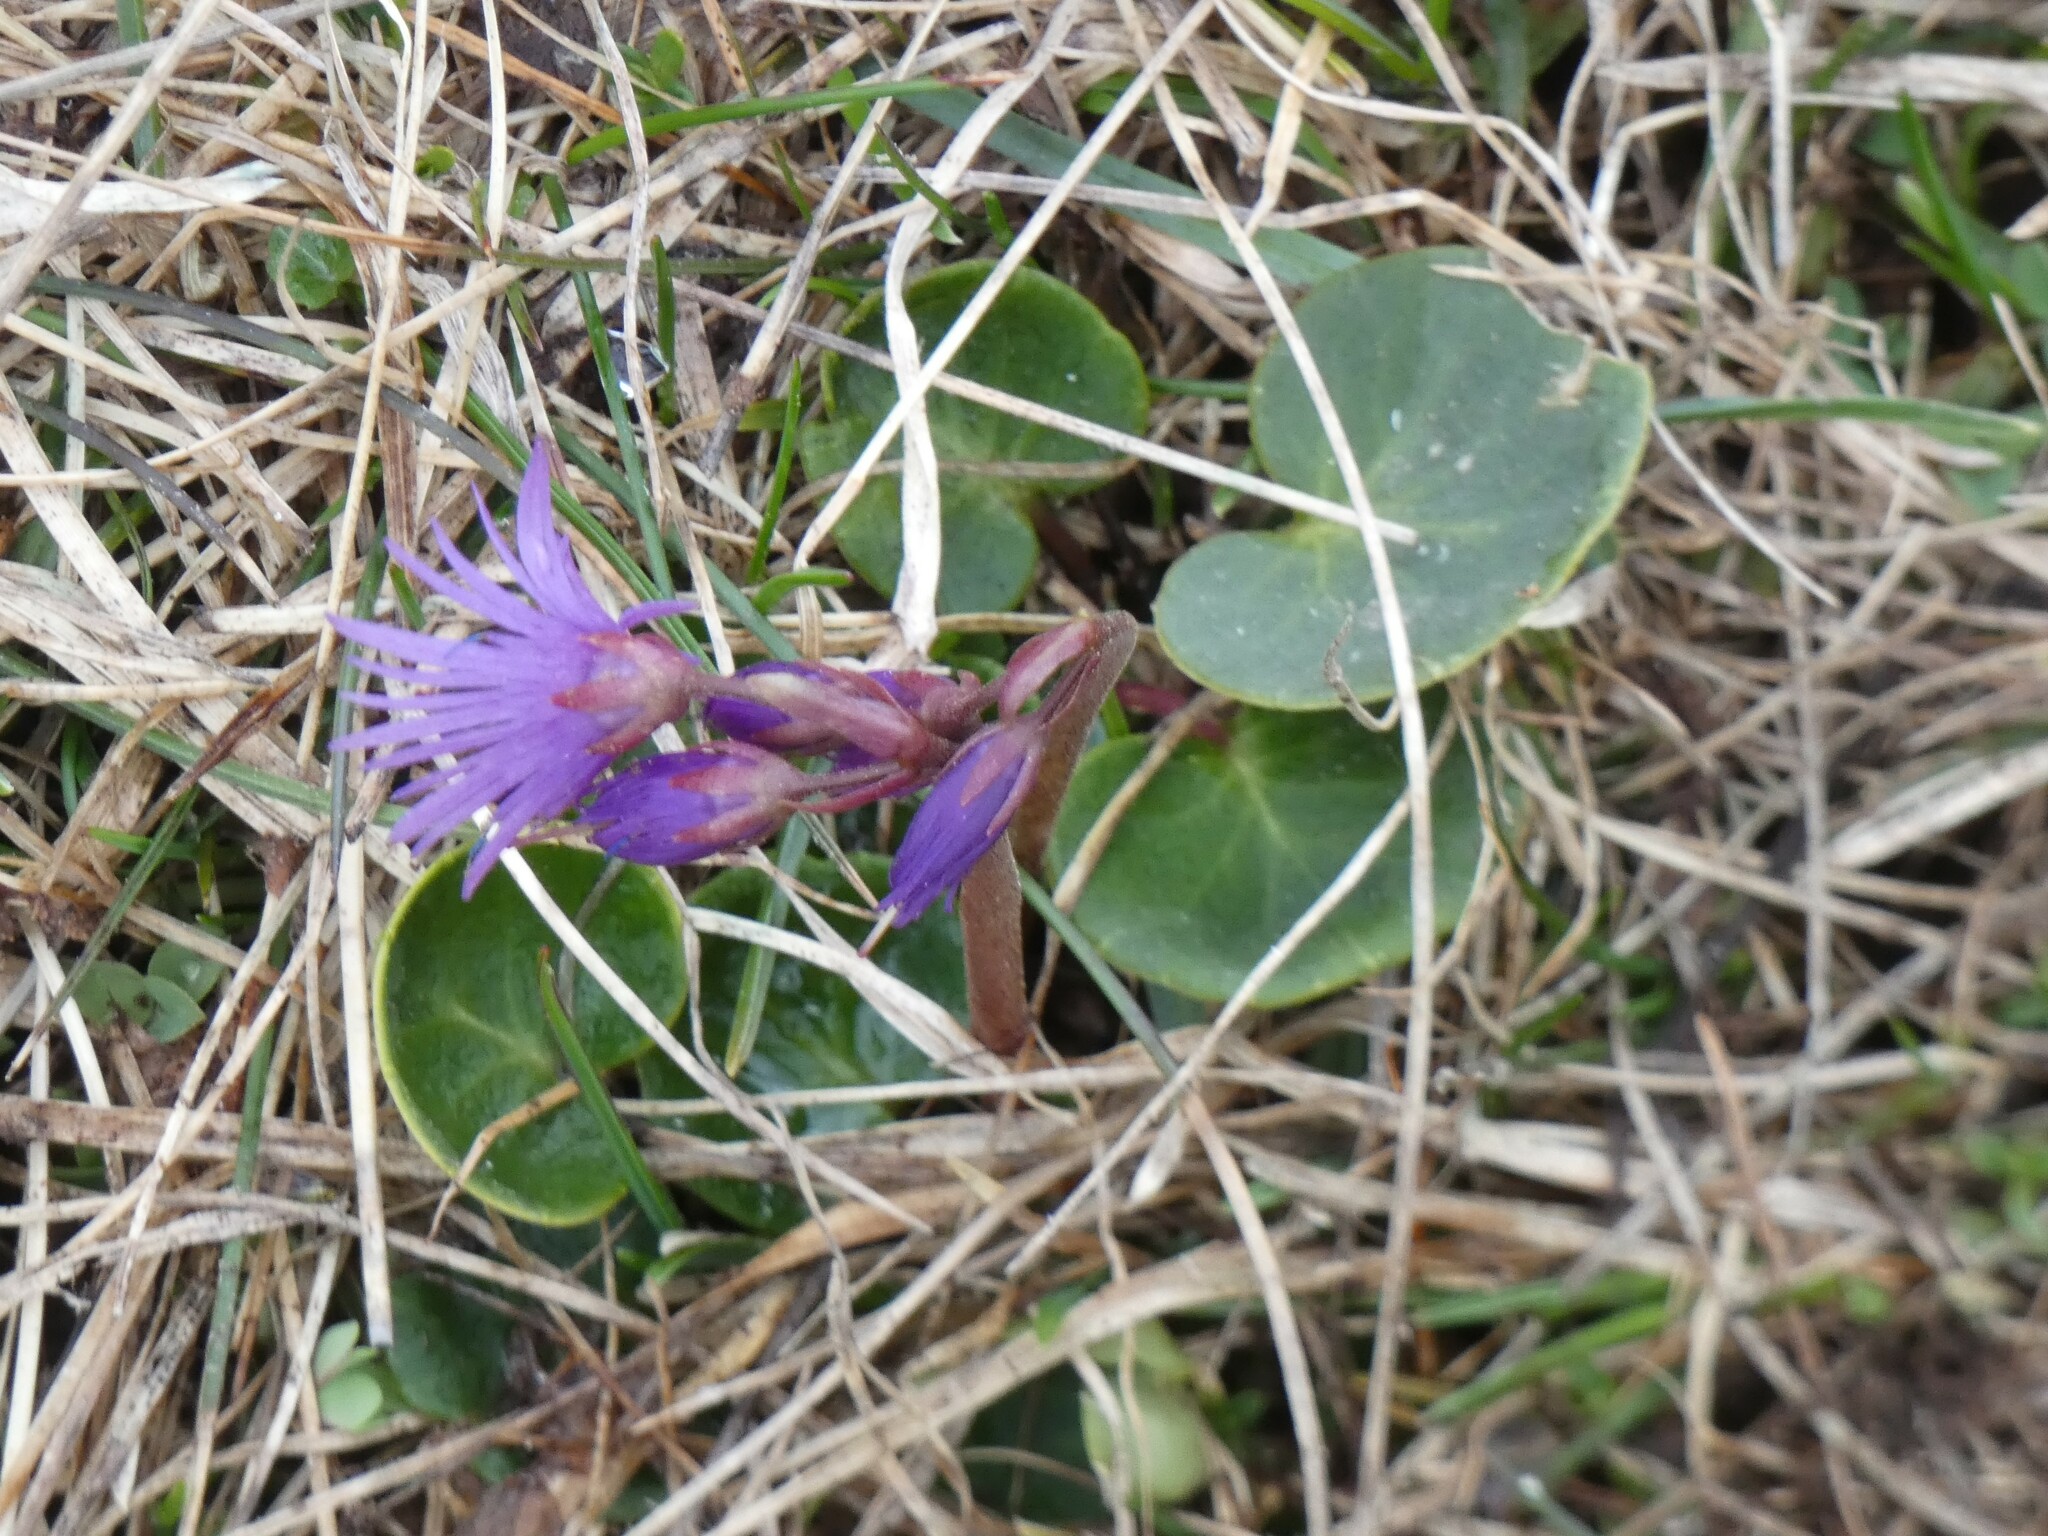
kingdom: Plantae
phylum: Tracheophyta
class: Magnoliopsida
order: Ericales
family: Primulaceae
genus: Soldanella
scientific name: Soldanella alpina
